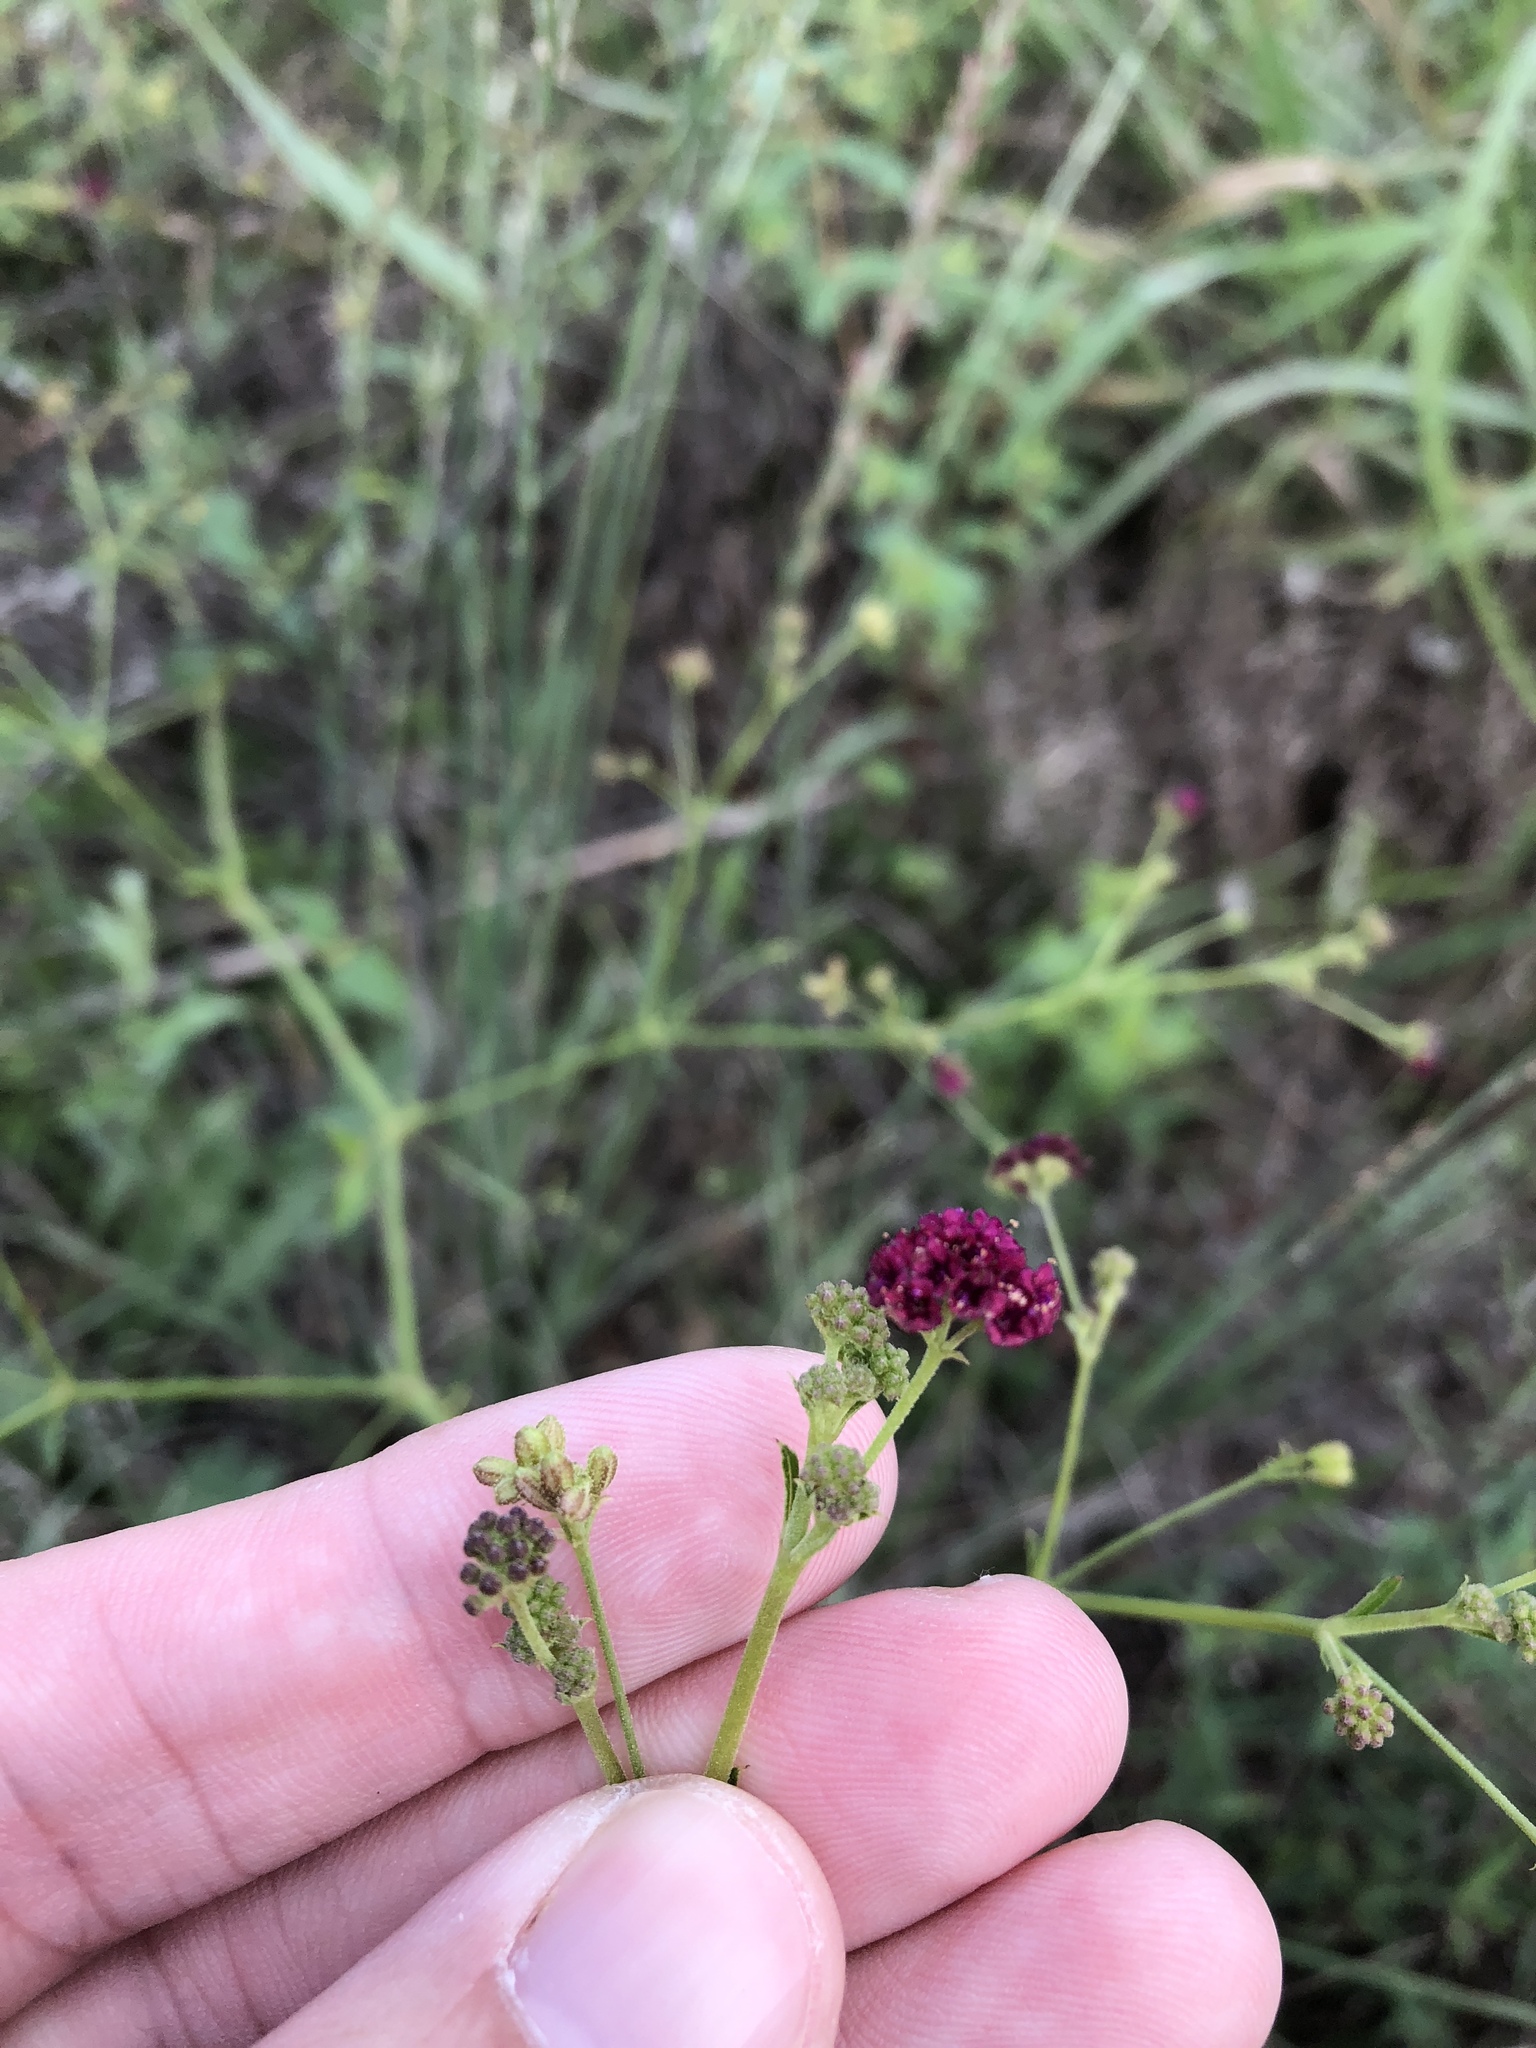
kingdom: Plantae
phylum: Tracheophyta
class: Magnoliopsida
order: Caryophyllales
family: Nyctaginaceae
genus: Boerhavia
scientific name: Boerhavia coccinea
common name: Scarlet spiderling
